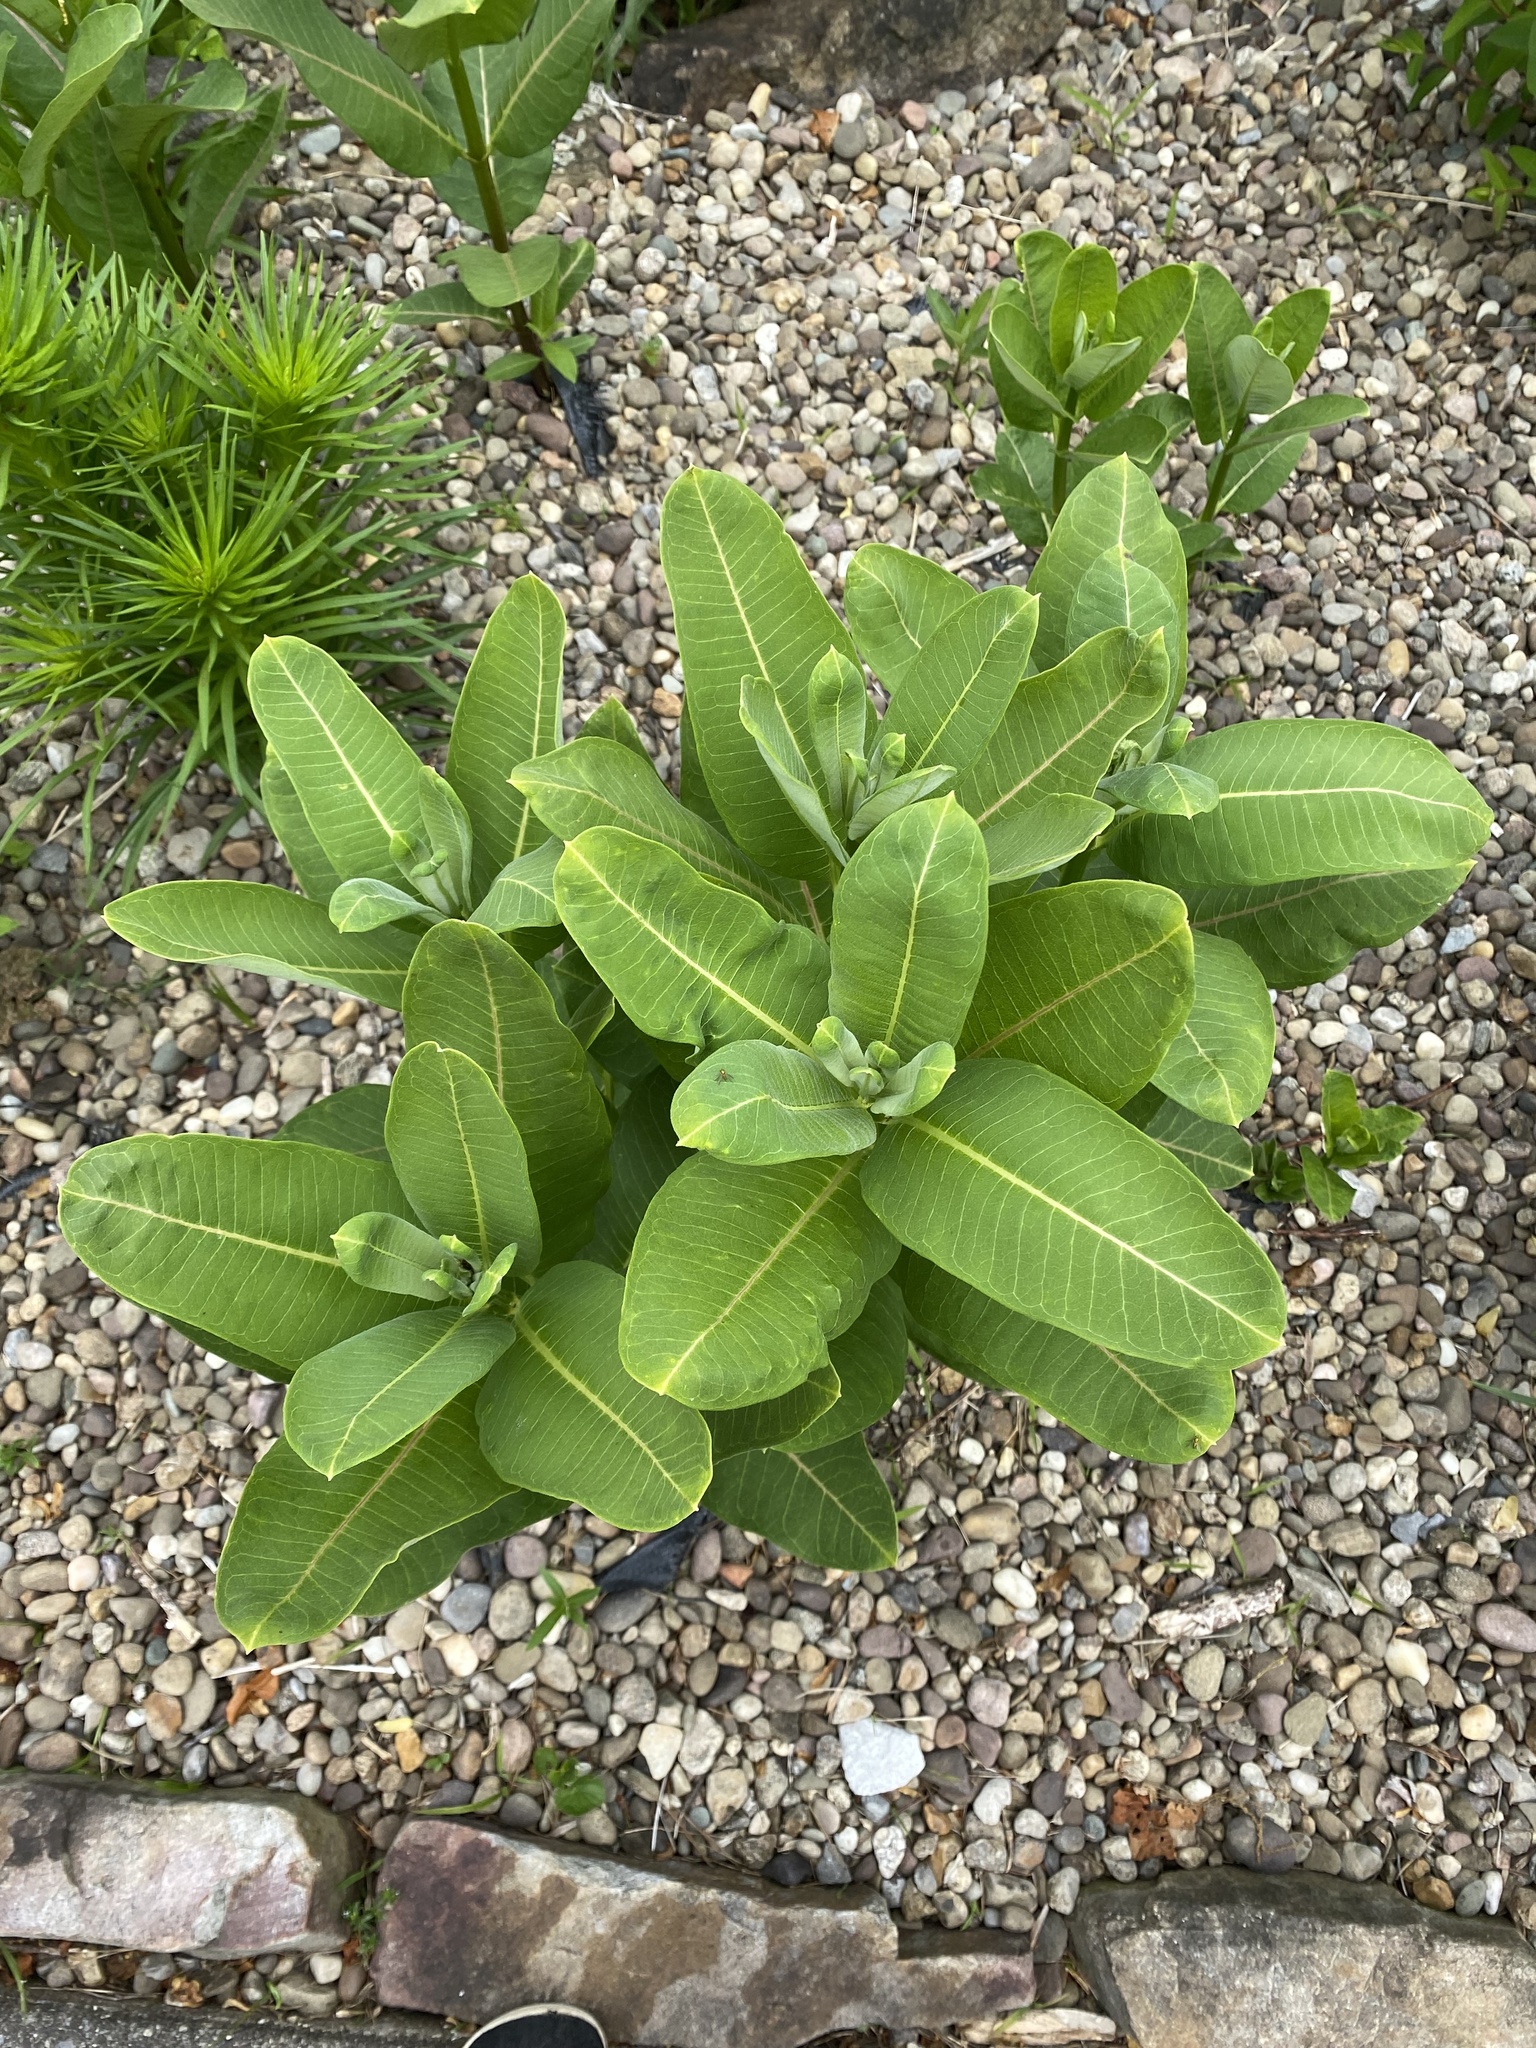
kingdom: Plantae
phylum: Tracheophyta
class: Magnoliopsida
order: Gentianales
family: Apocynaceae
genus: Asclepias
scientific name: Asclepias syriaca
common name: Common milkweed
